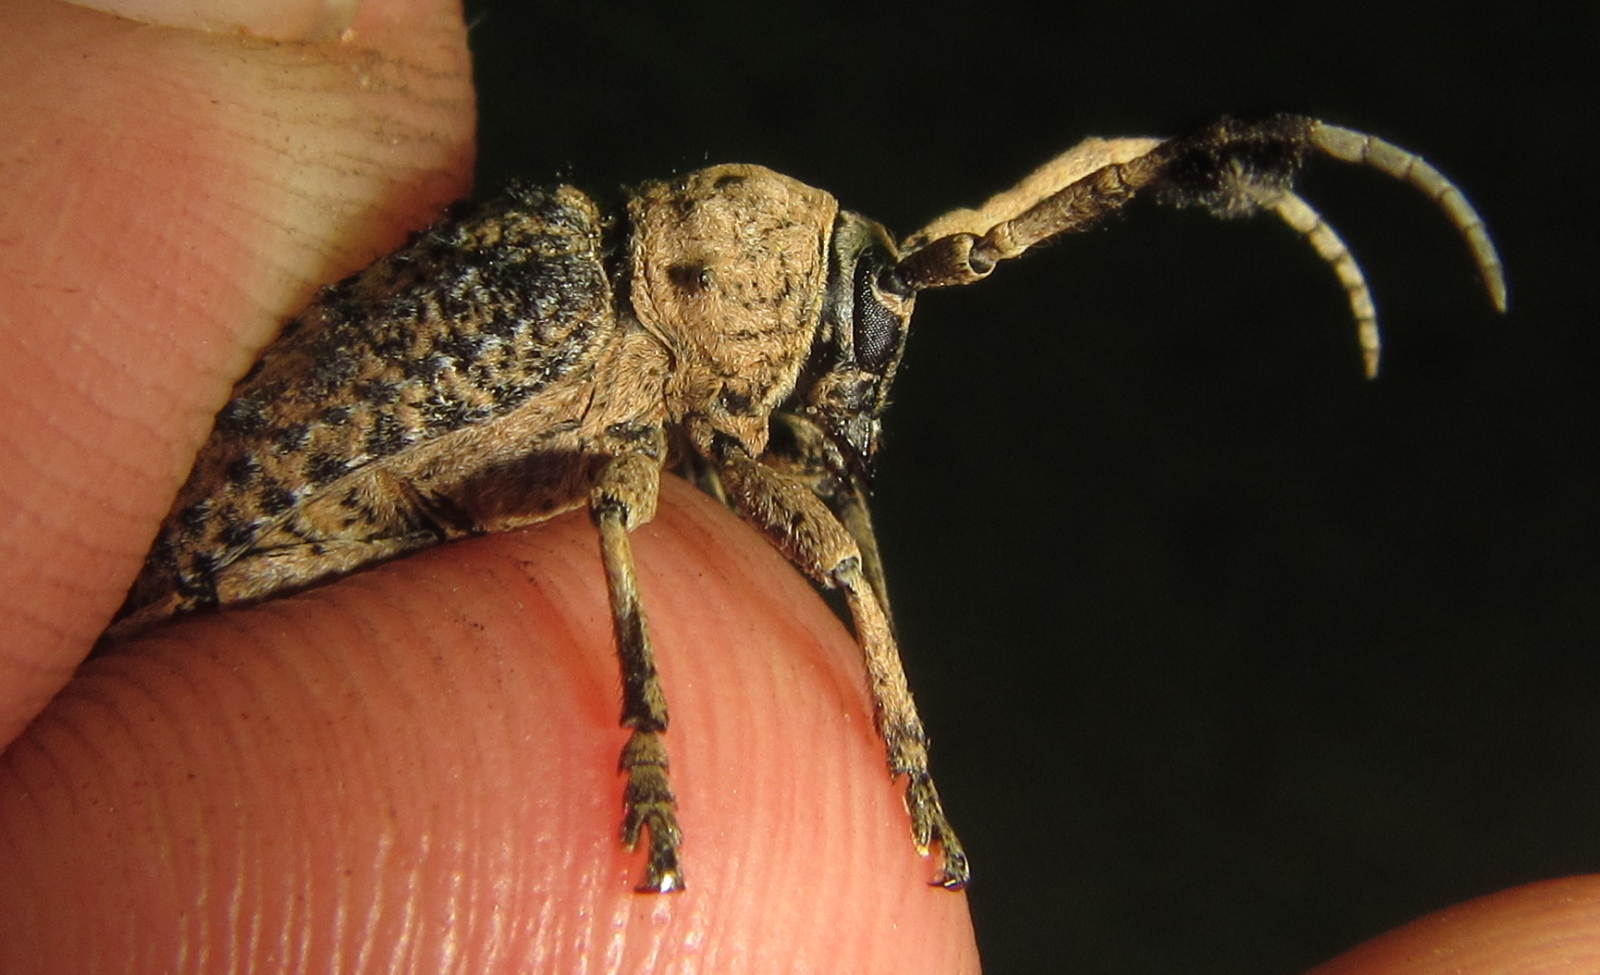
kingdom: Animalia
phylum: Arthropoda
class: Insecta
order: Coleoptera
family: Cerambycidae
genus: Gasponia
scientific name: Gasponia gaujani
